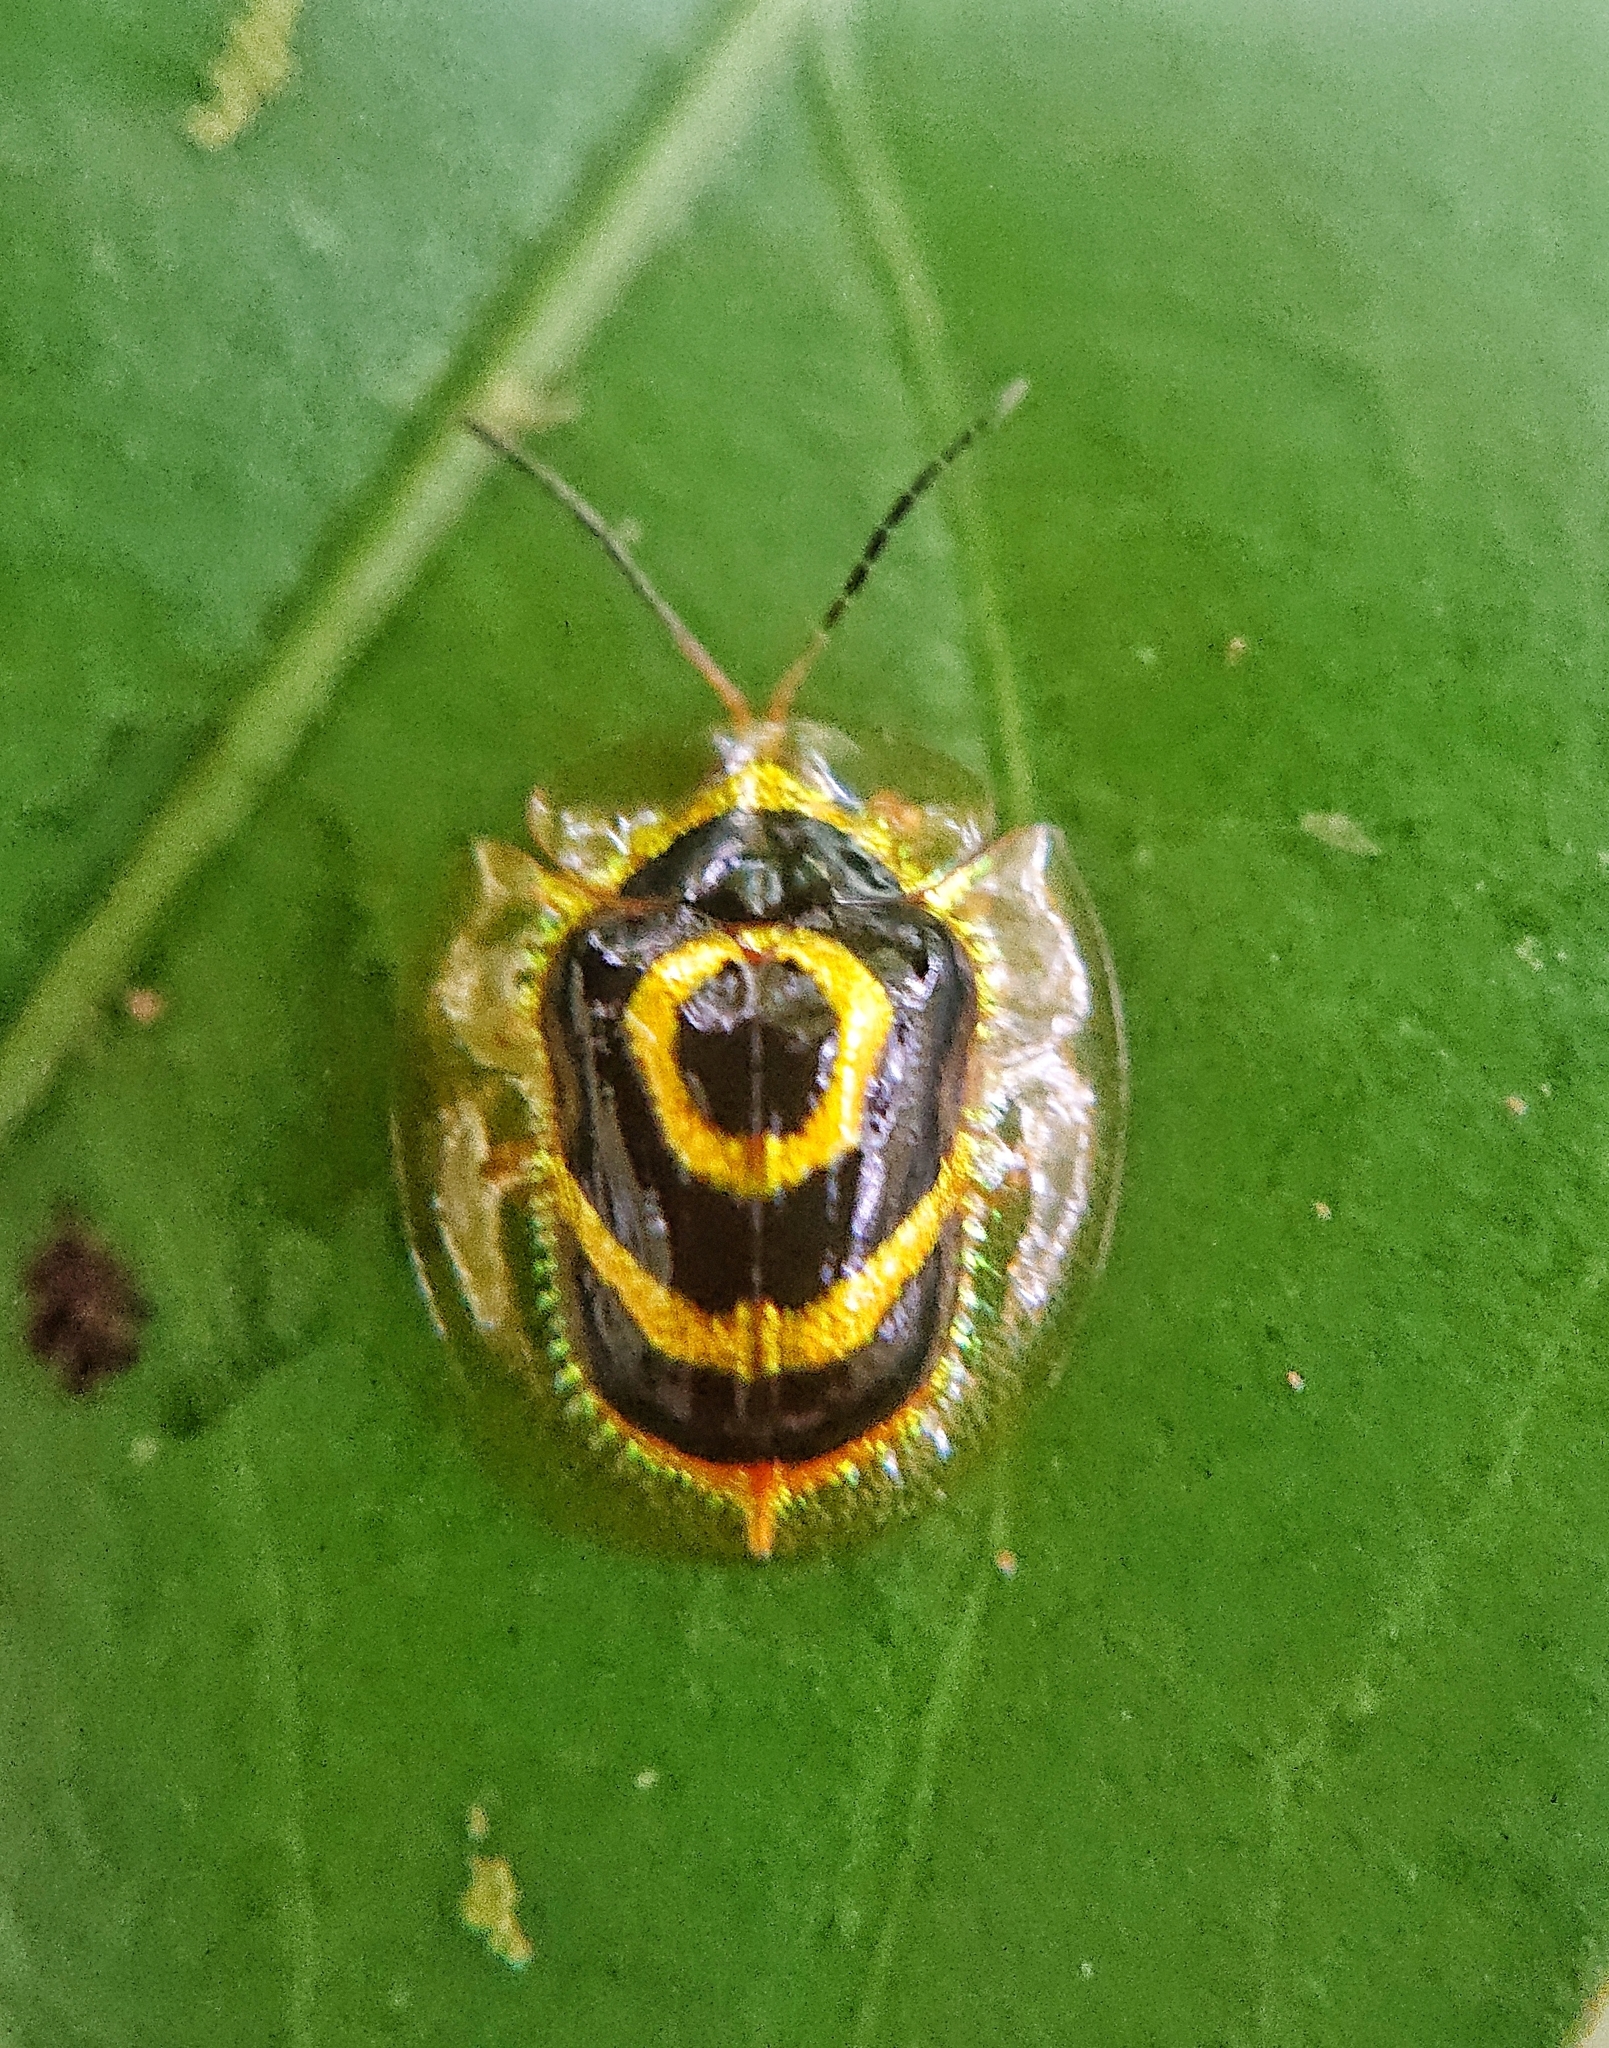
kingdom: Animalia
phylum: Arthropoda
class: Insecta
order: Coleoptera
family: Chrysomelidae
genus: Ischnocodia
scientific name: Ischnocodia annulus
